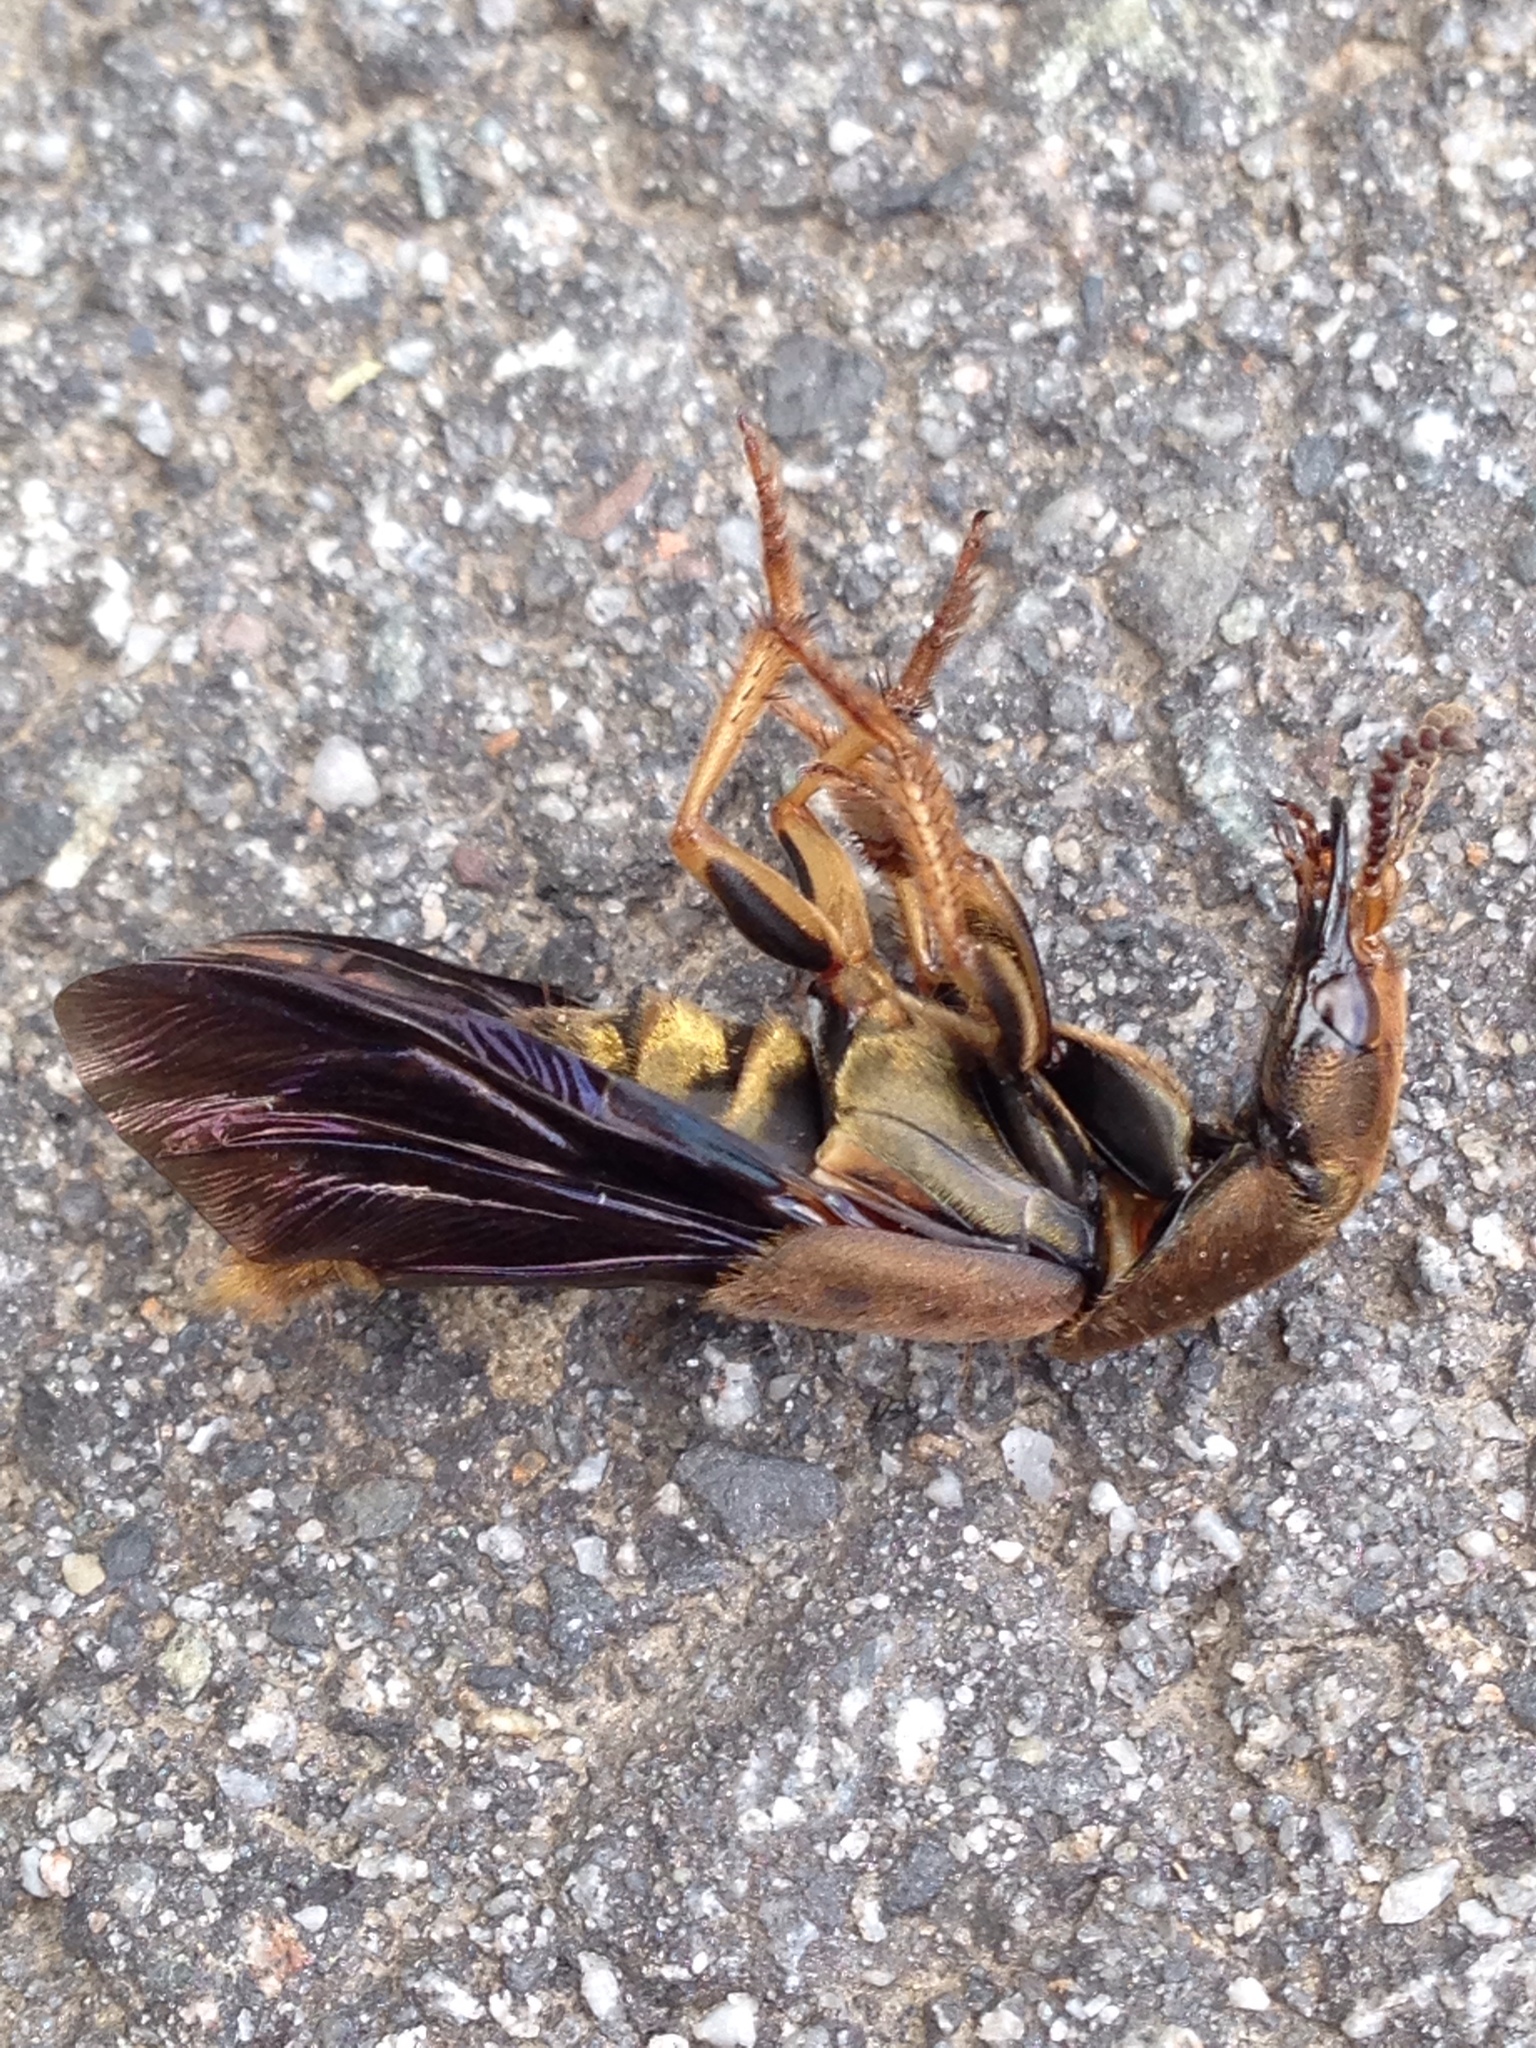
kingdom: Animalia
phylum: Arthropoda
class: Insecta
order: Coleoptera
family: Staphylinidae
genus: Platydracus
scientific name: Platydracus maculosus
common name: Brown rove beetle
